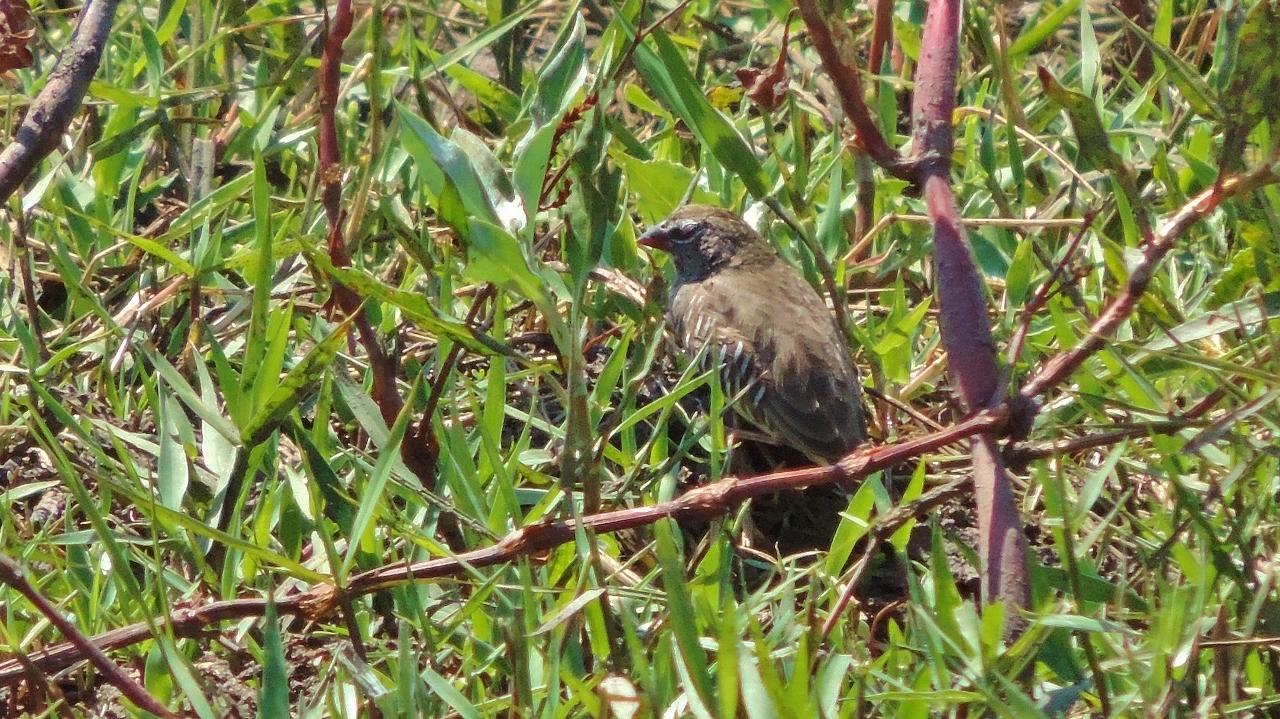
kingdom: Animalia
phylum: Chordata
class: Aves
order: Passeriformes
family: Estrildidae
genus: Ortygospiza
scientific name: Ortygospiza atricollis
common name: Quailfinch
